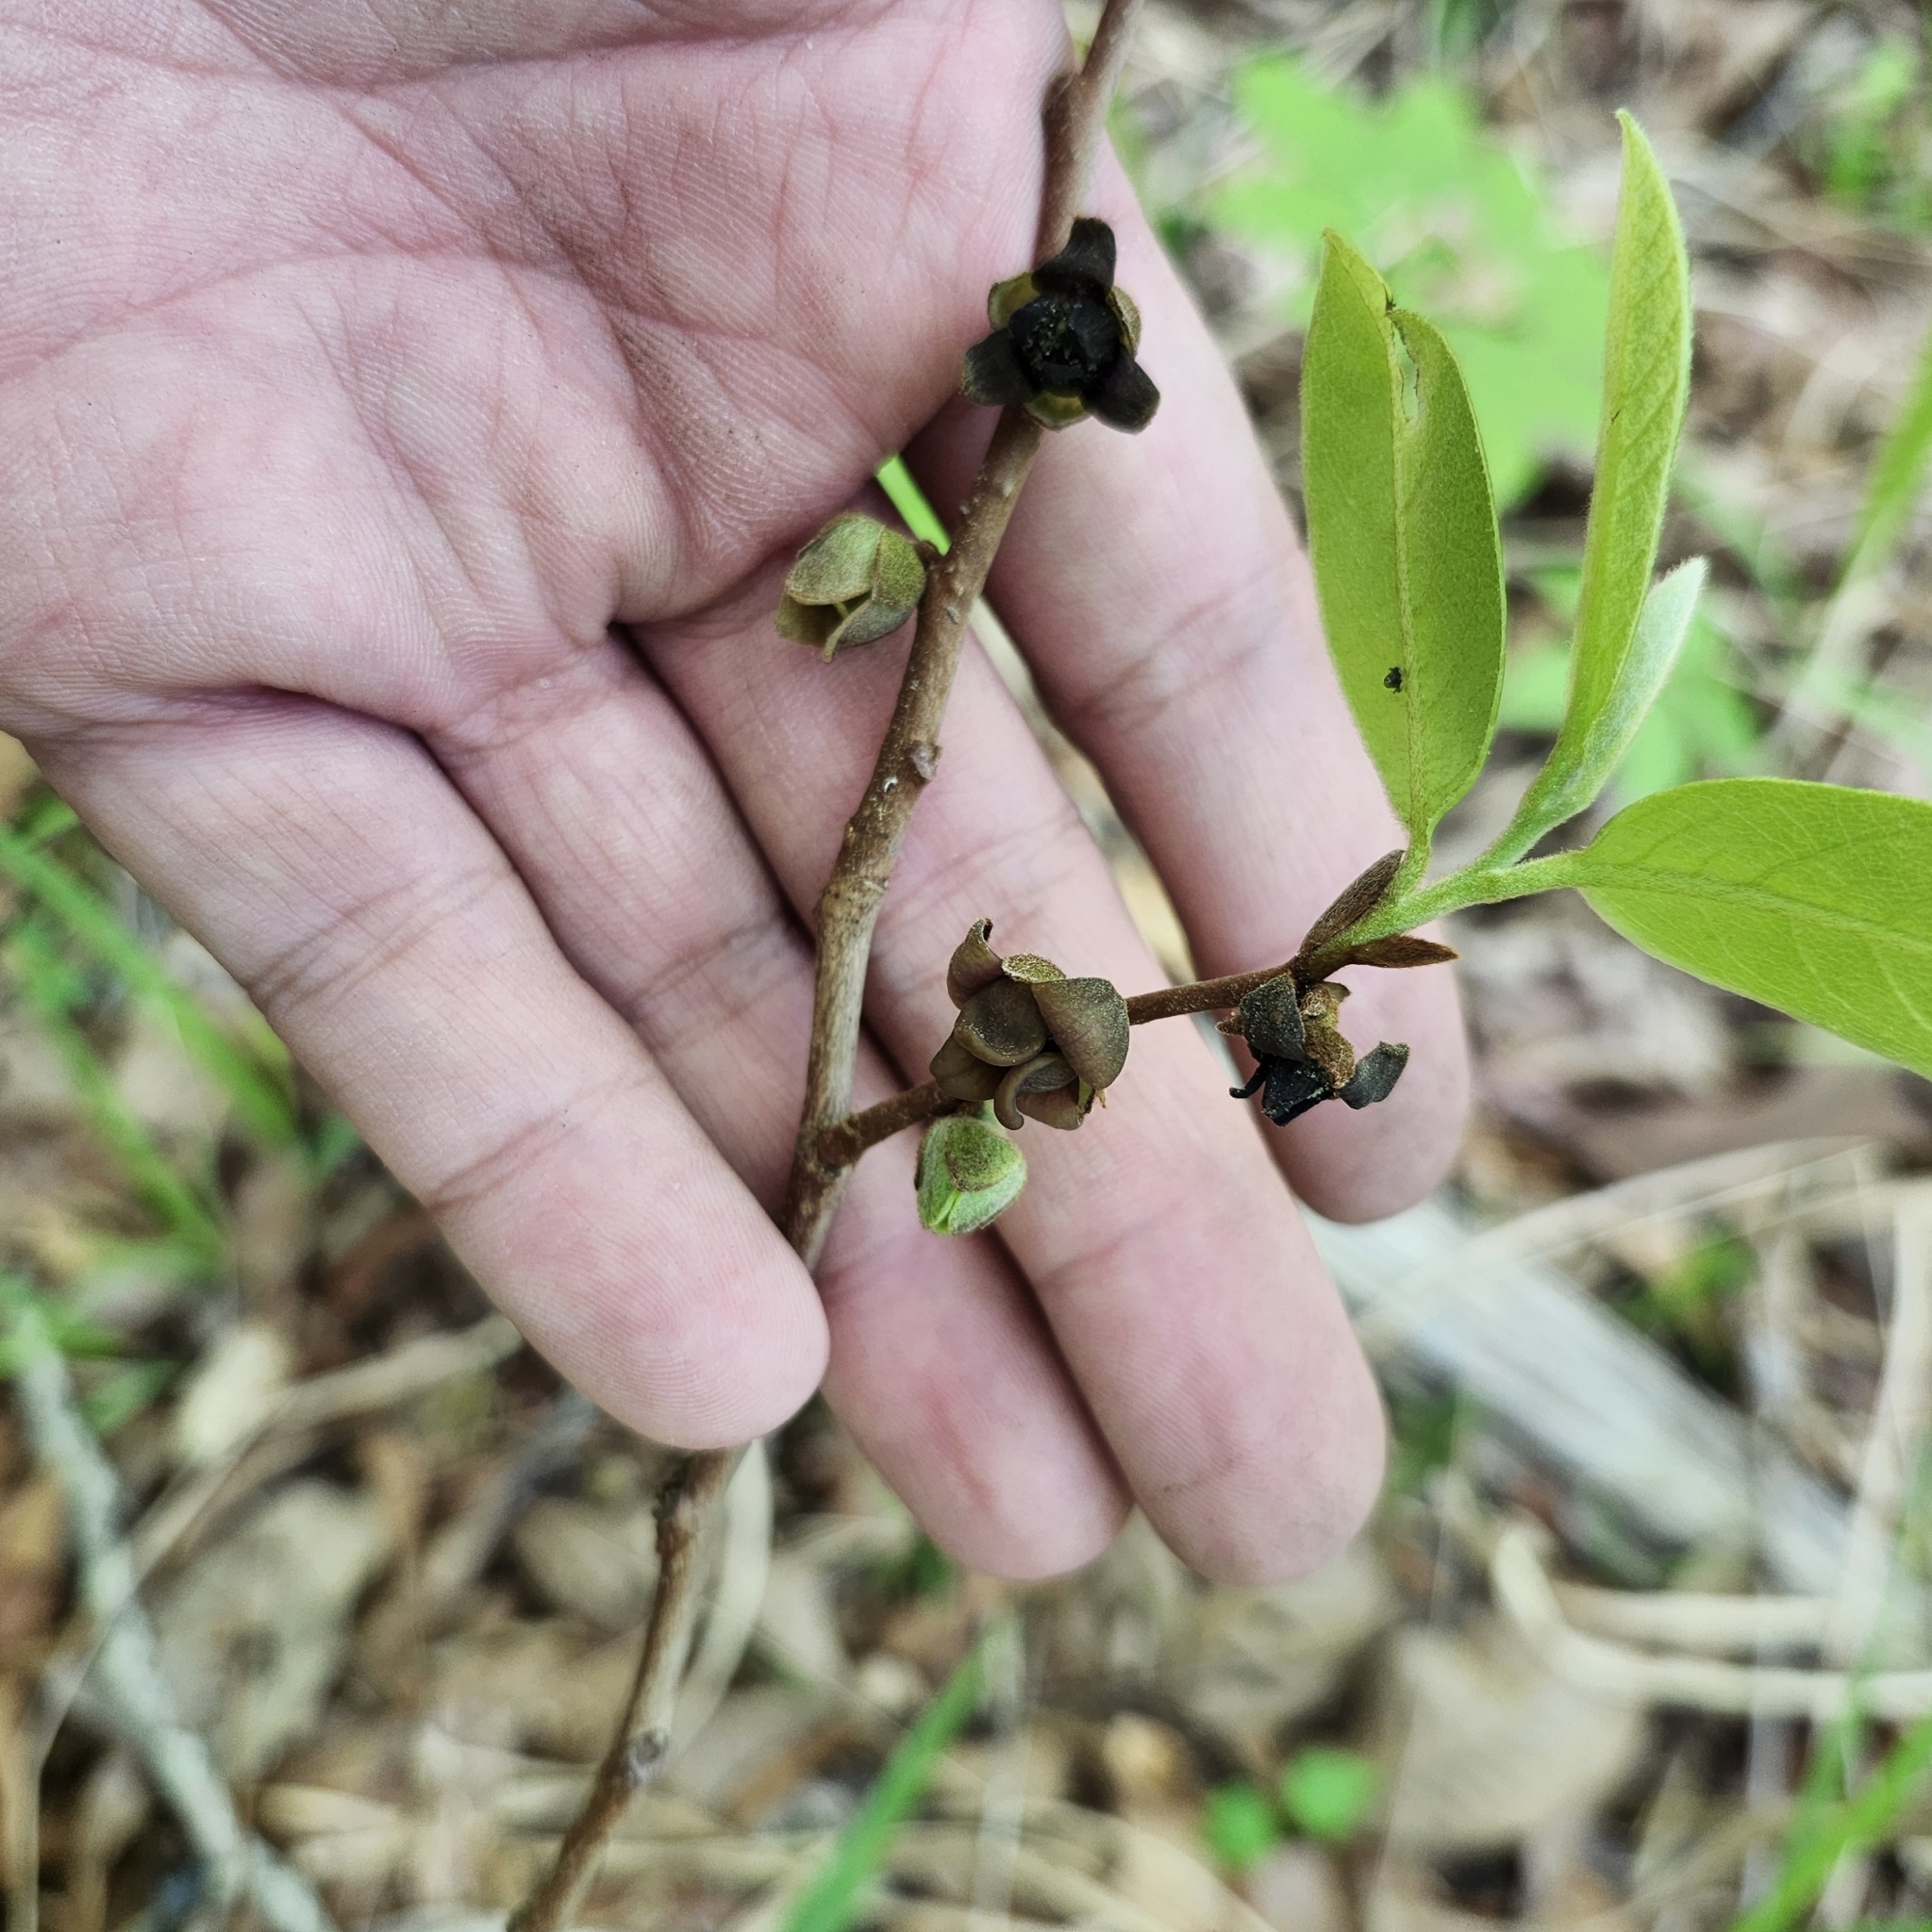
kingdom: Plantae
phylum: Tracheophyta
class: Magnoliopsida
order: Magnoliales
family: Annonaceae
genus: Asimina
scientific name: Asimina parviflora
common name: Dwarf pawpaw
